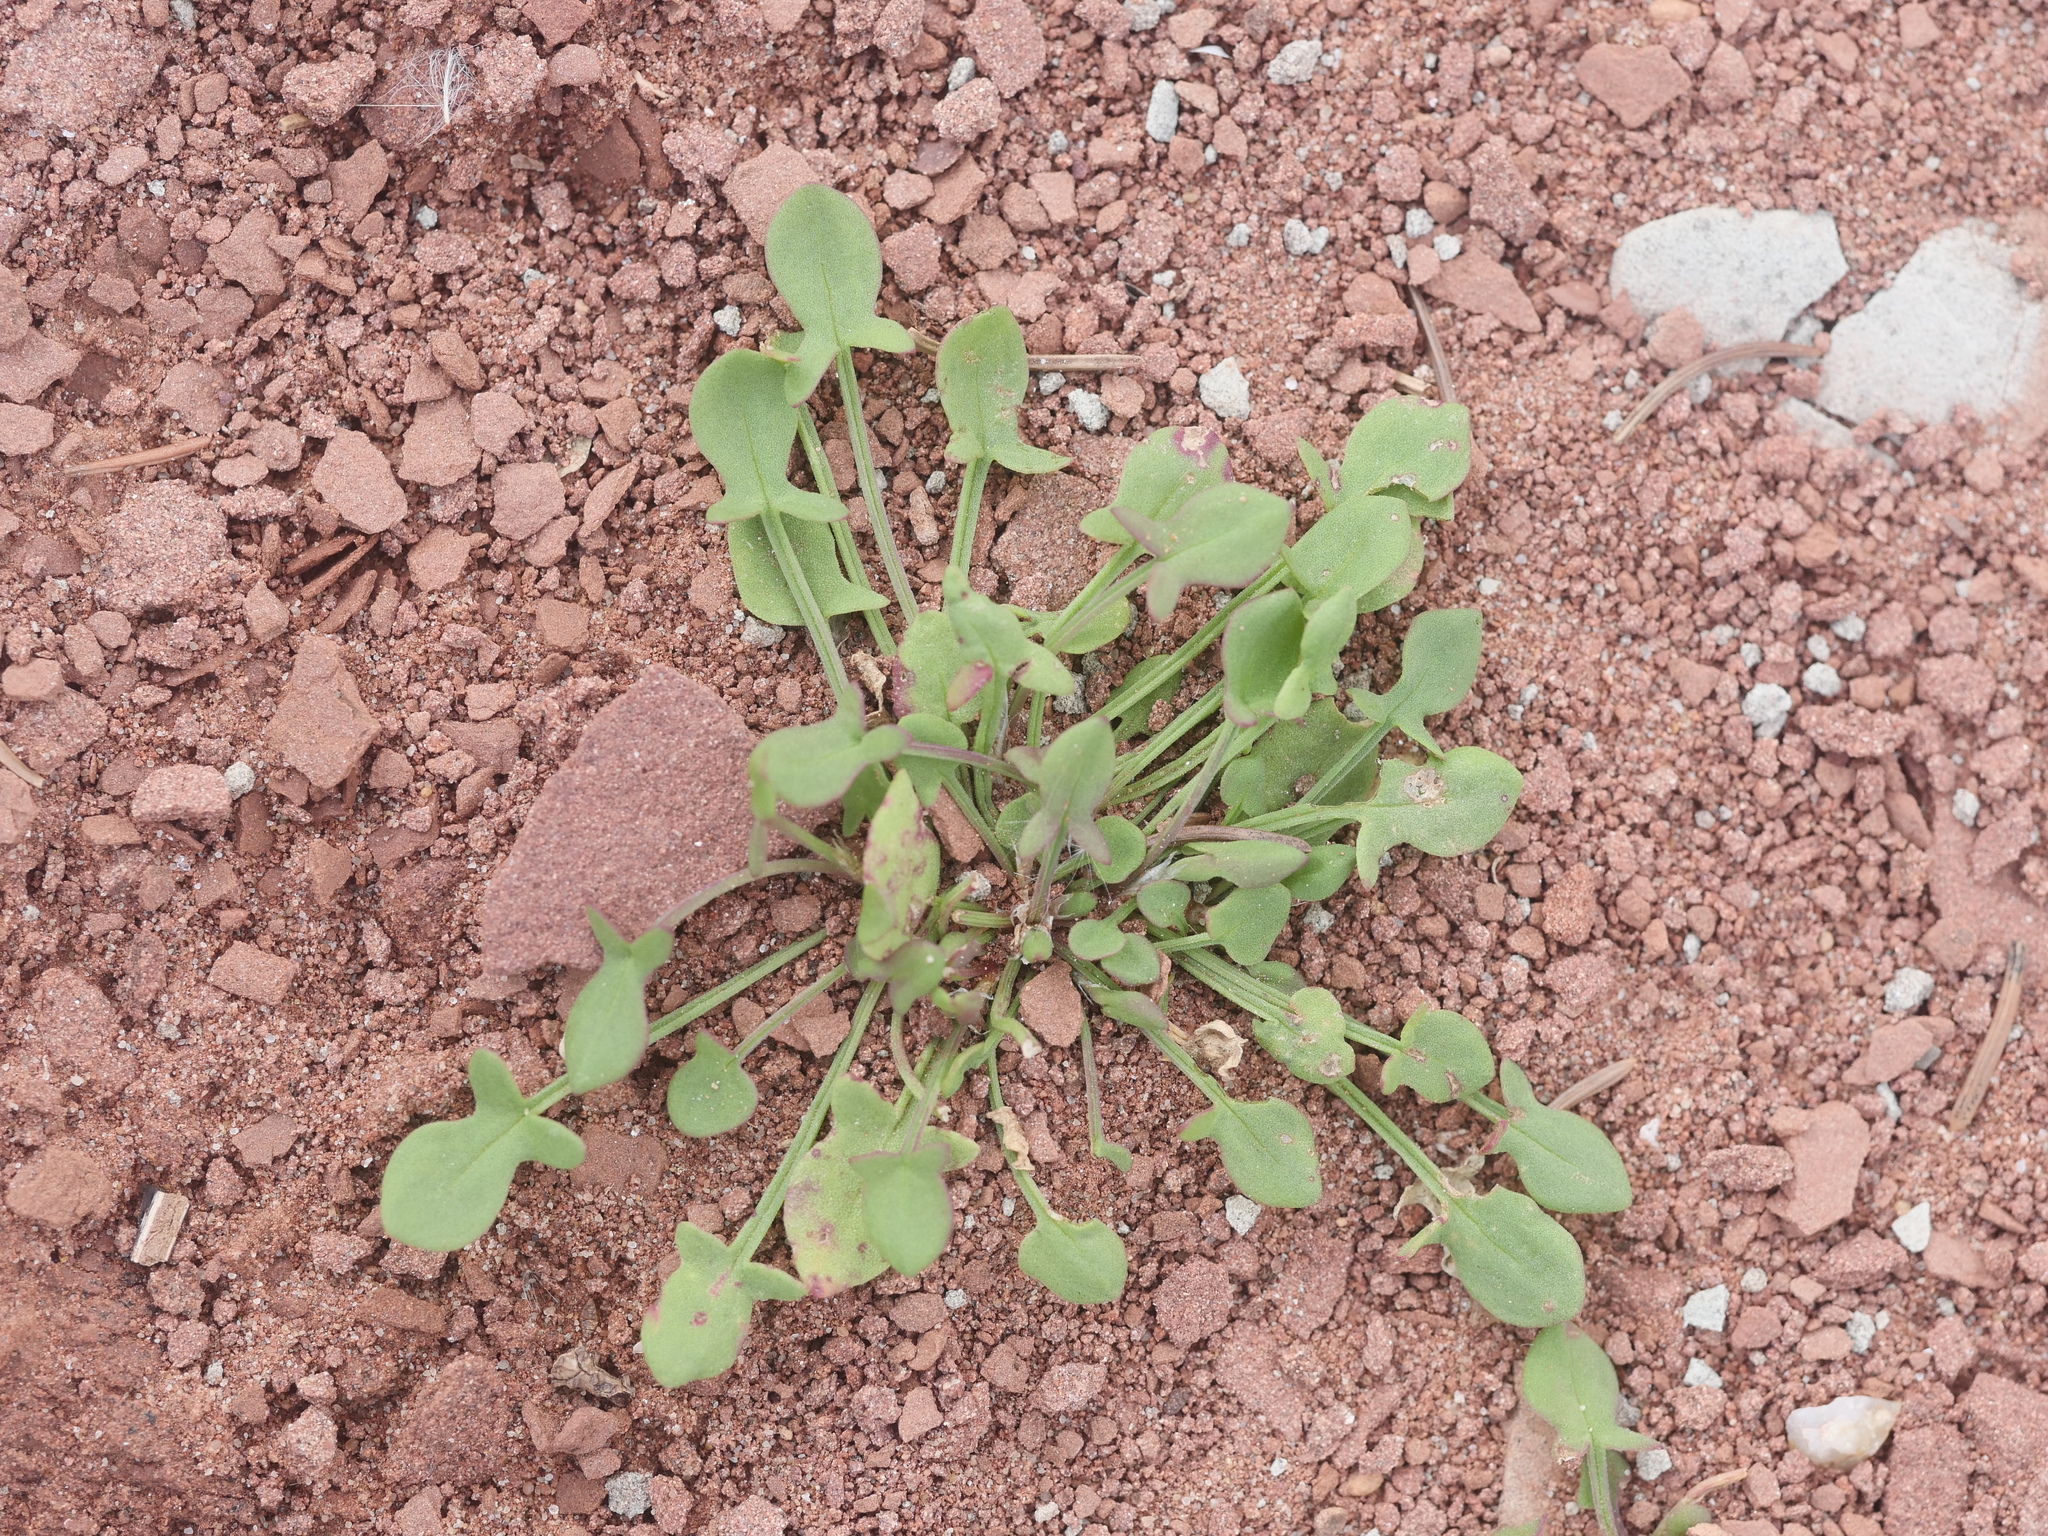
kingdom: Plantae
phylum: Tracheophyta
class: Magnoliopsida
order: Caryophyllales
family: Polygonaceae
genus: Rumex
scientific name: Rumex acetosella
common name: Common sheep sorrel
